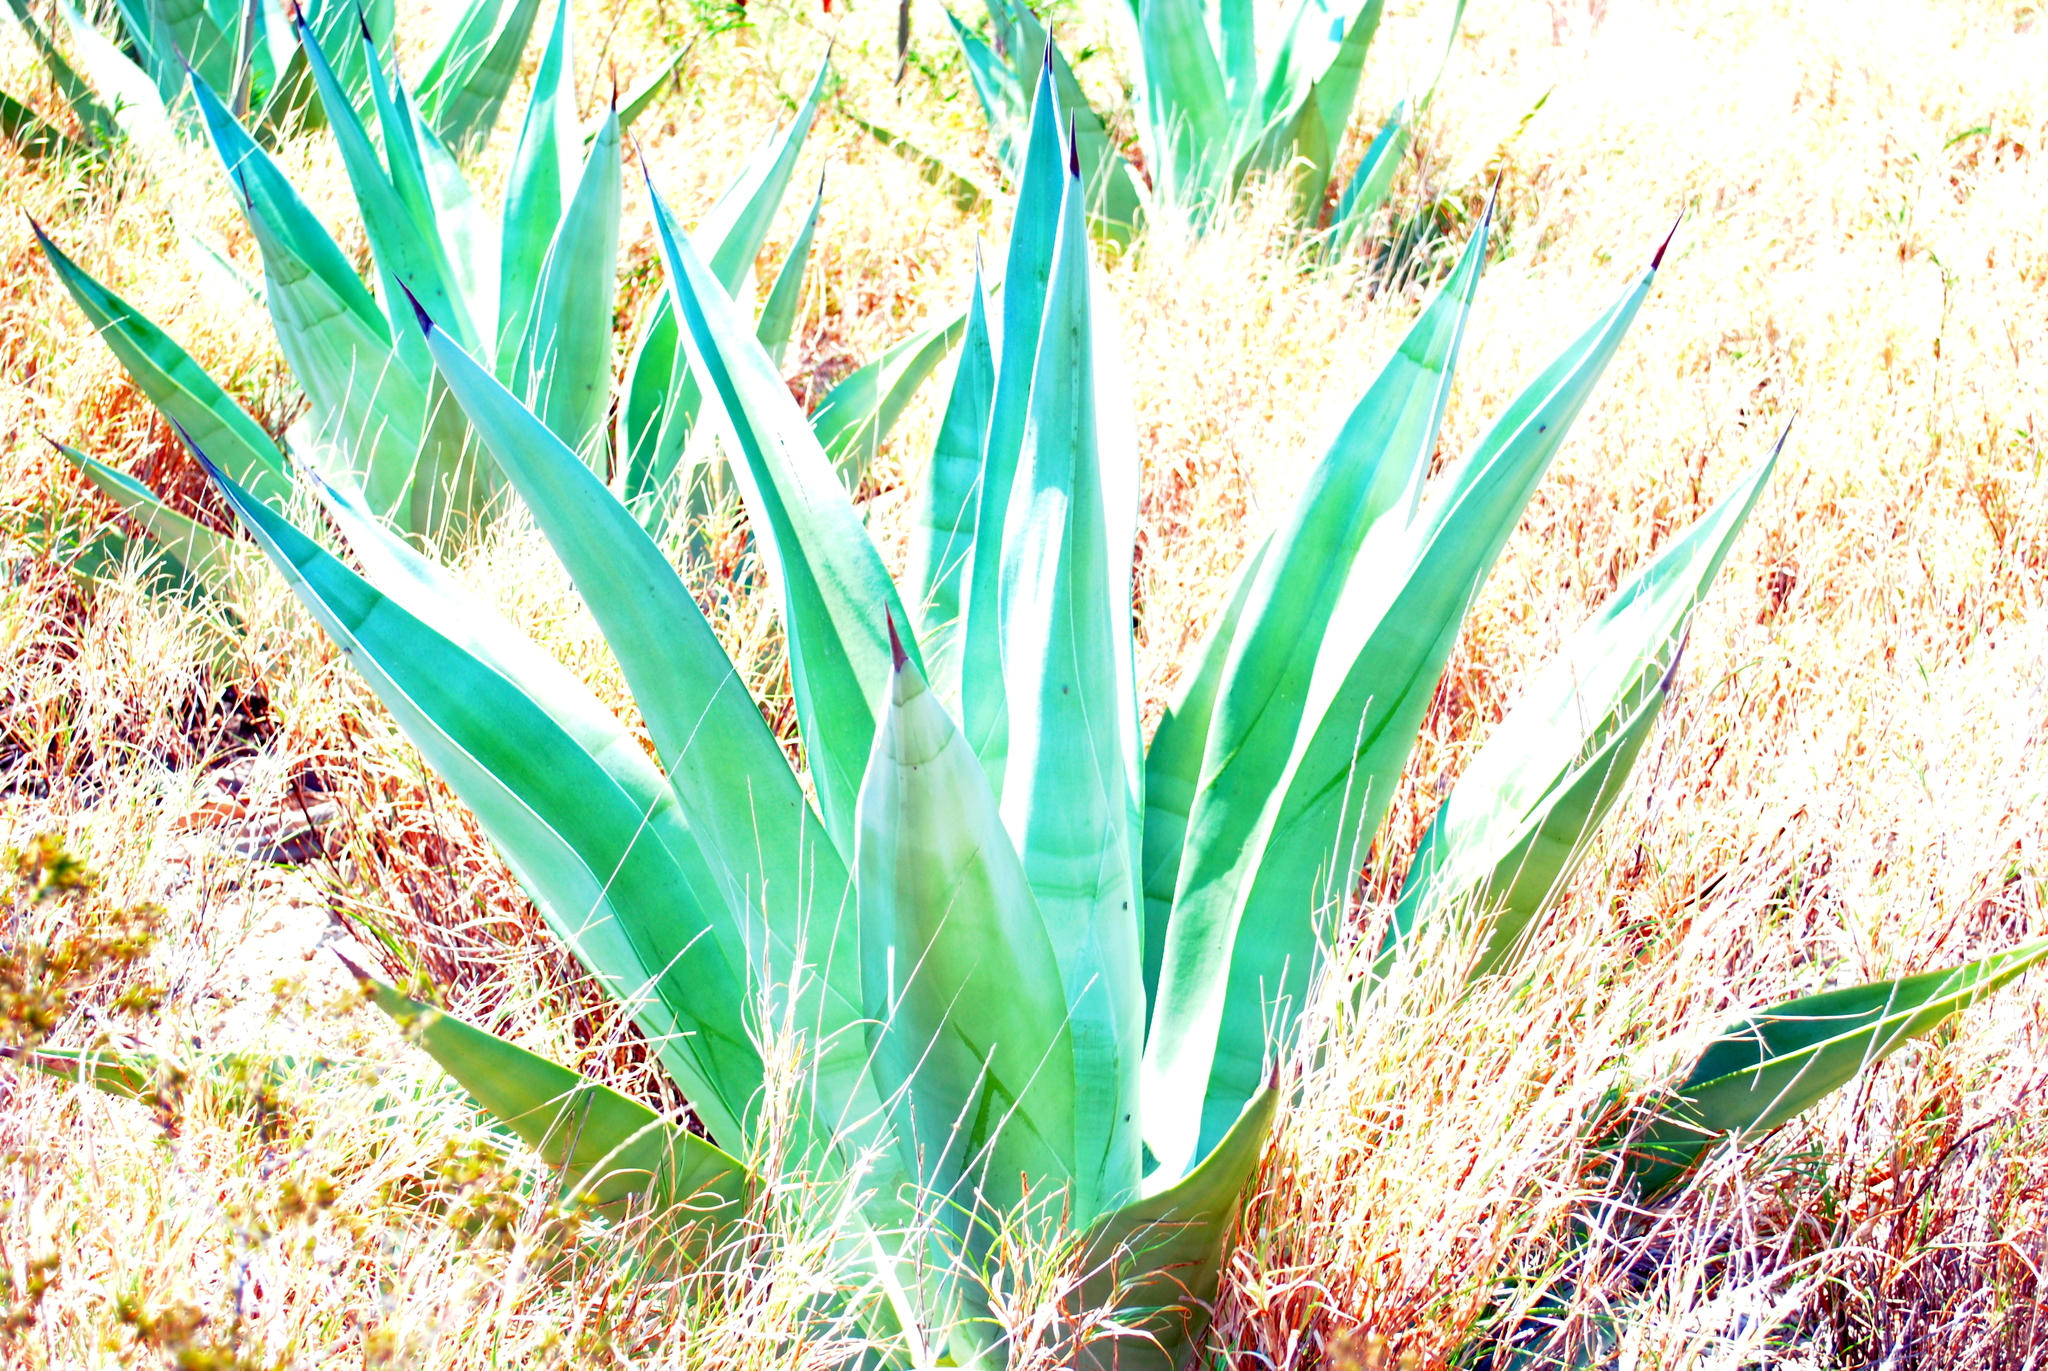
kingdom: Plantae
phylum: Tracheophyta
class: Liliopsida
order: Asparagales
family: Asparagaceae
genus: Agave
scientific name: Agave americana
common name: Centuryplant
